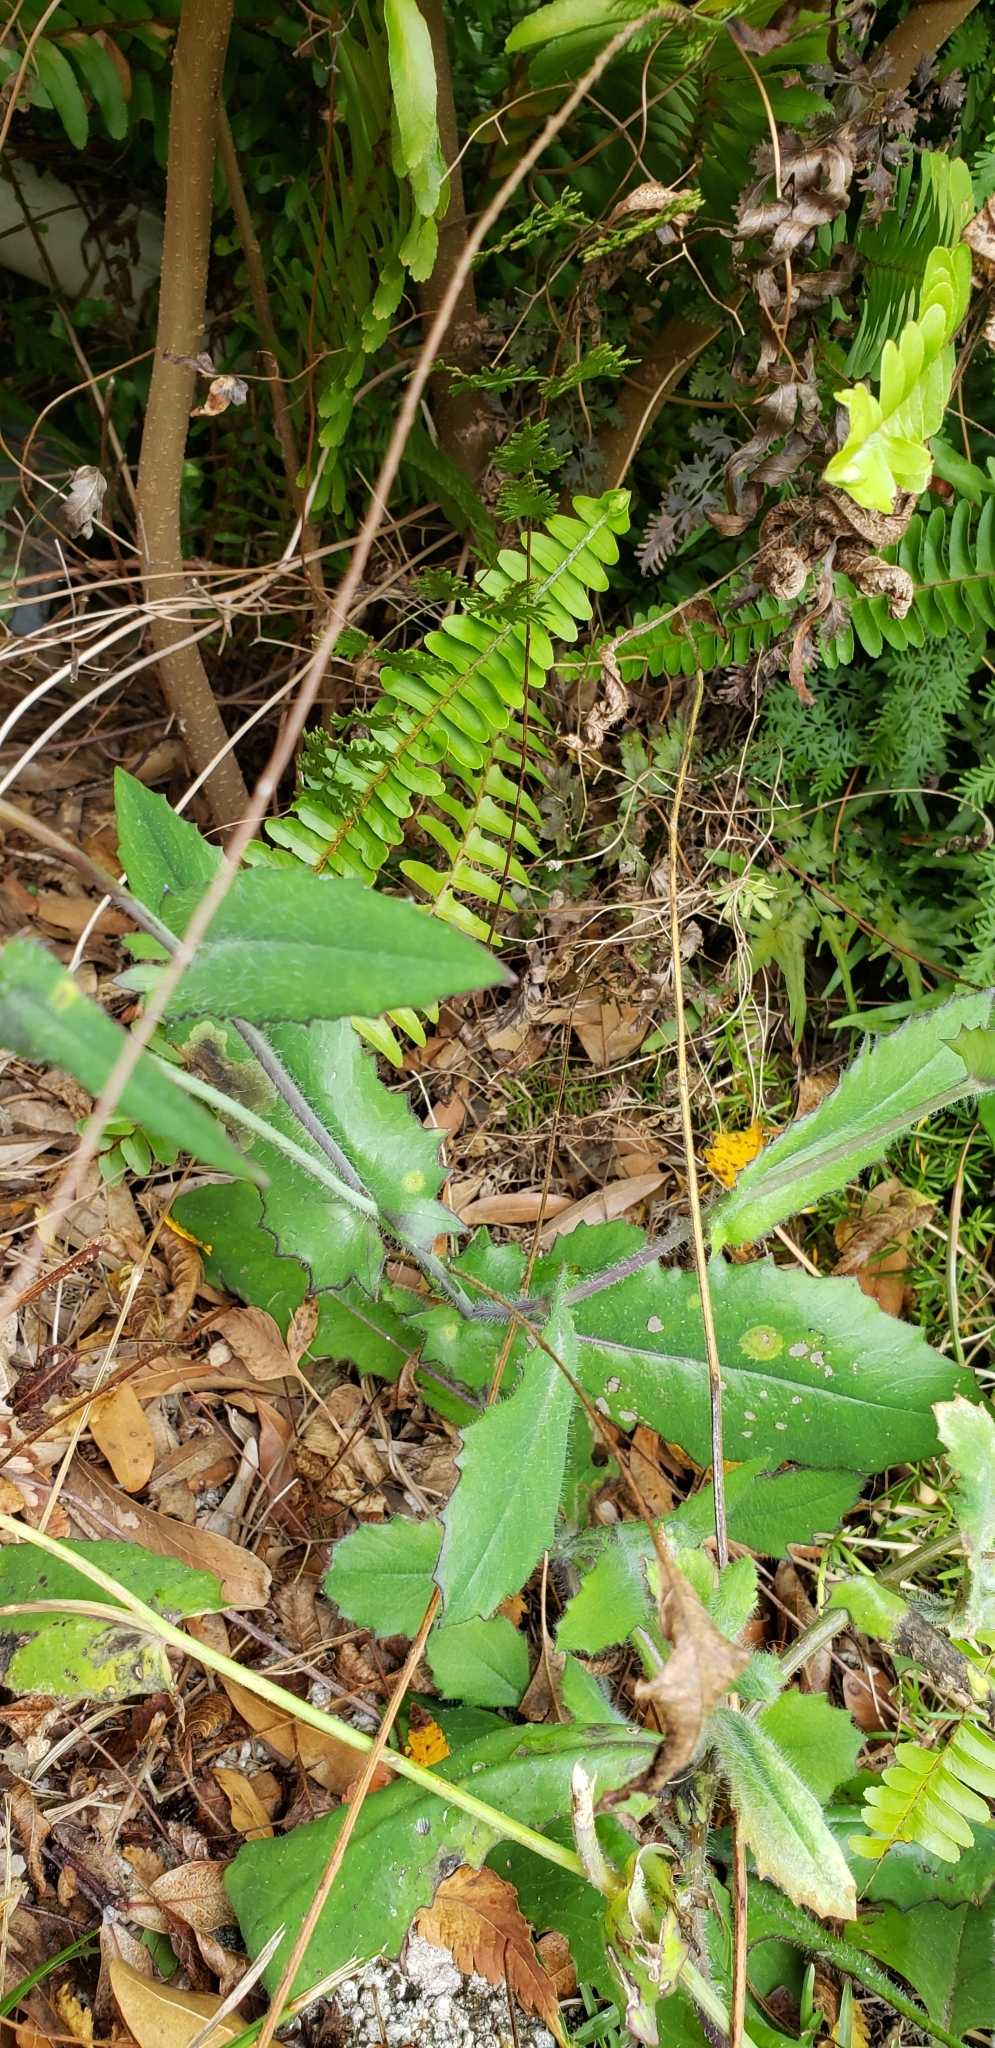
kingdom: Plantae
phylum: Tracheophyta
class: Magnoliopsida
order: Asterales
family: Asteraceae
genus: Emilia
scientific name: Emilia fosbergii
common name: Florida tasselflower
